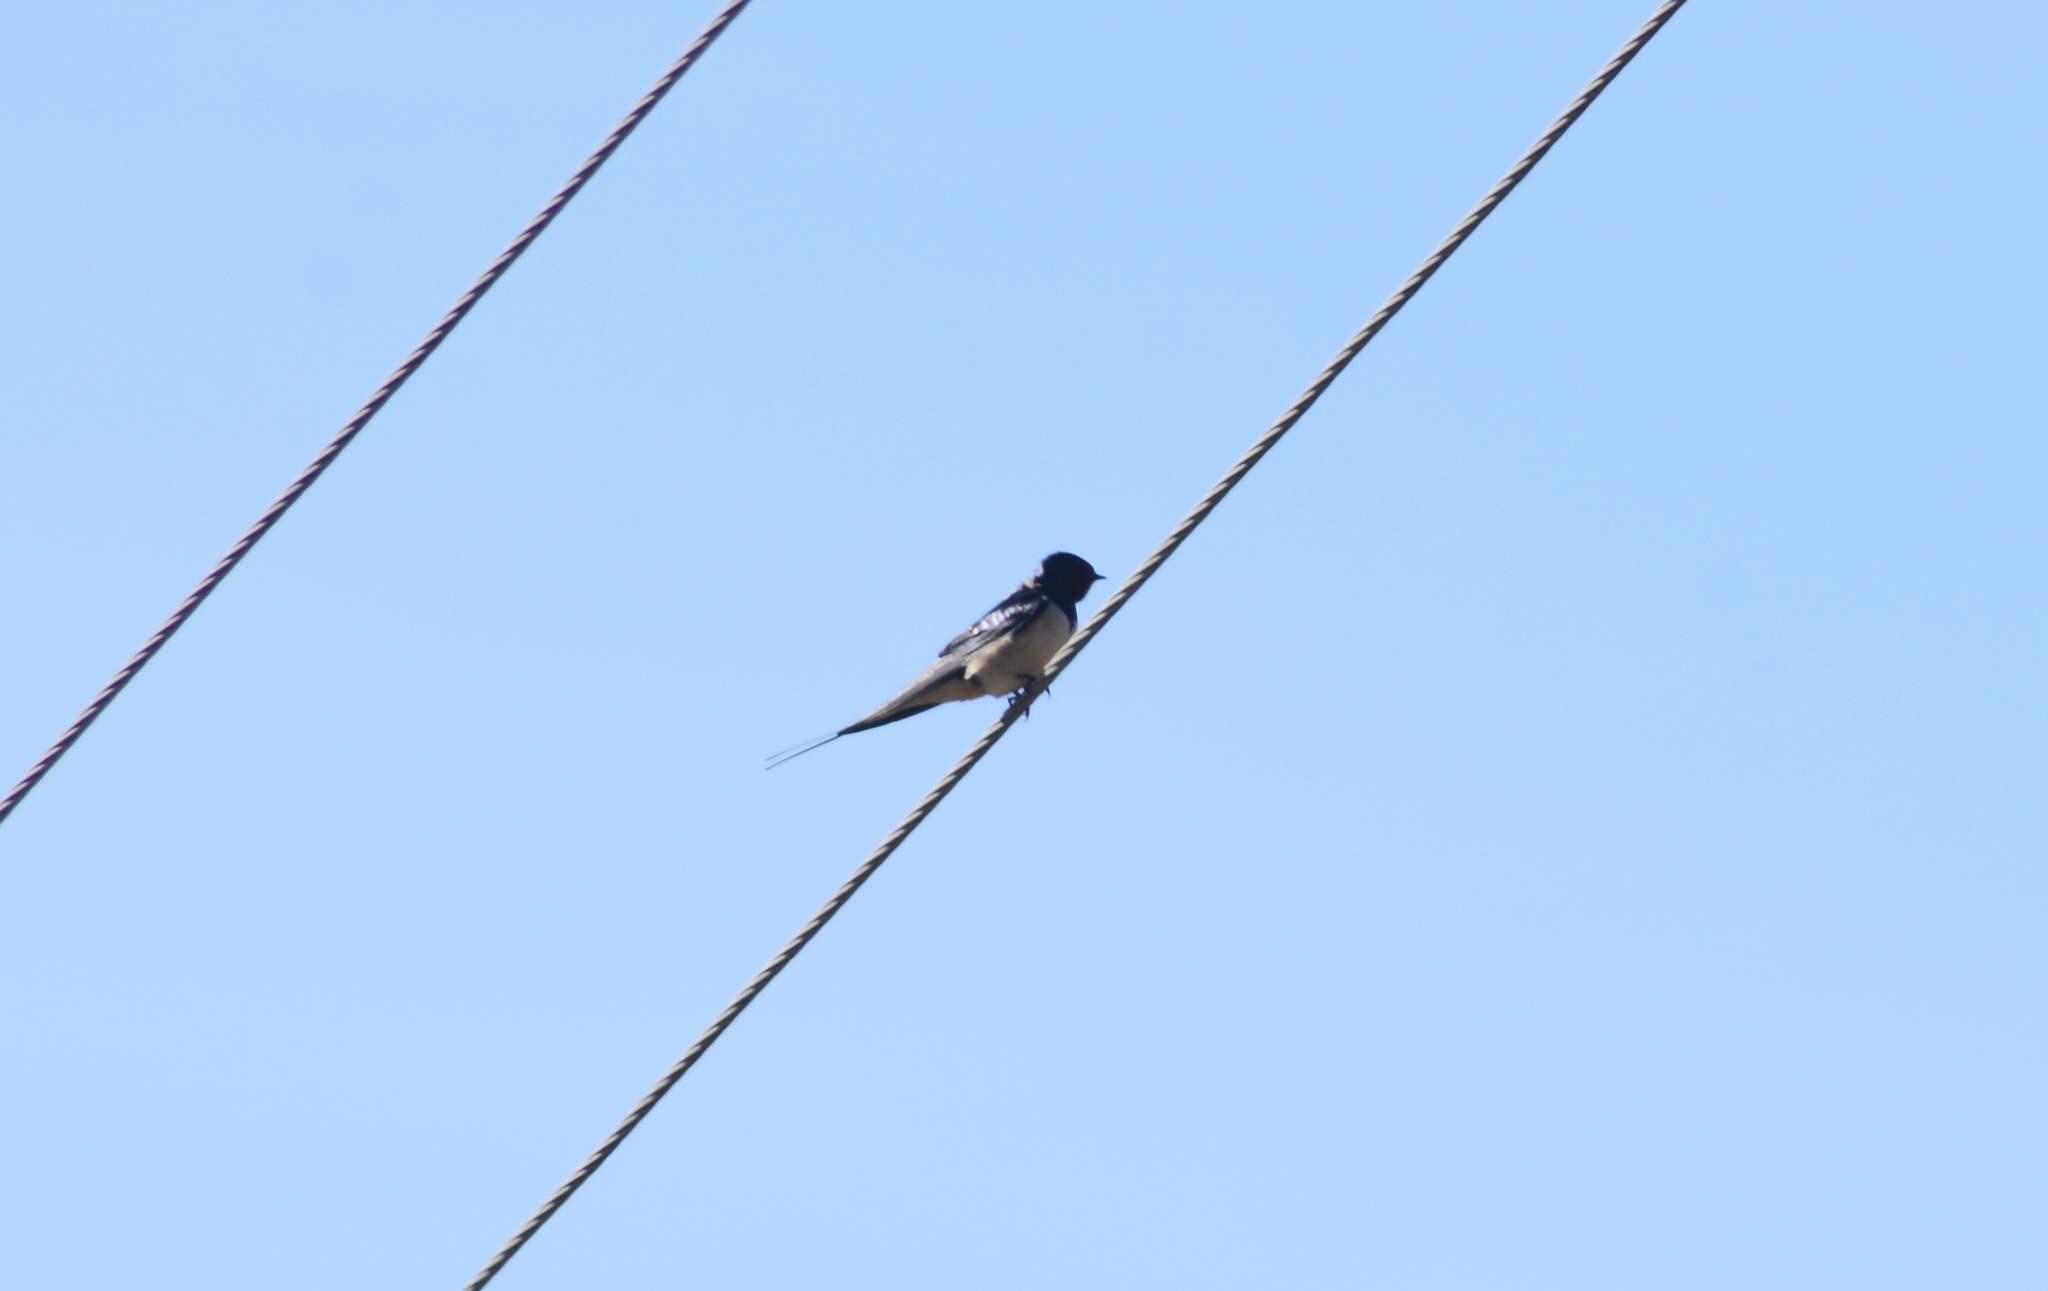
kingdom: Animalia
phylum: Chordata
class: Aves
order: Passeriformes
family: Hirundinidae
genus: Hirundo
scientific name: Hirundo rustica
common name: Barn swallow
